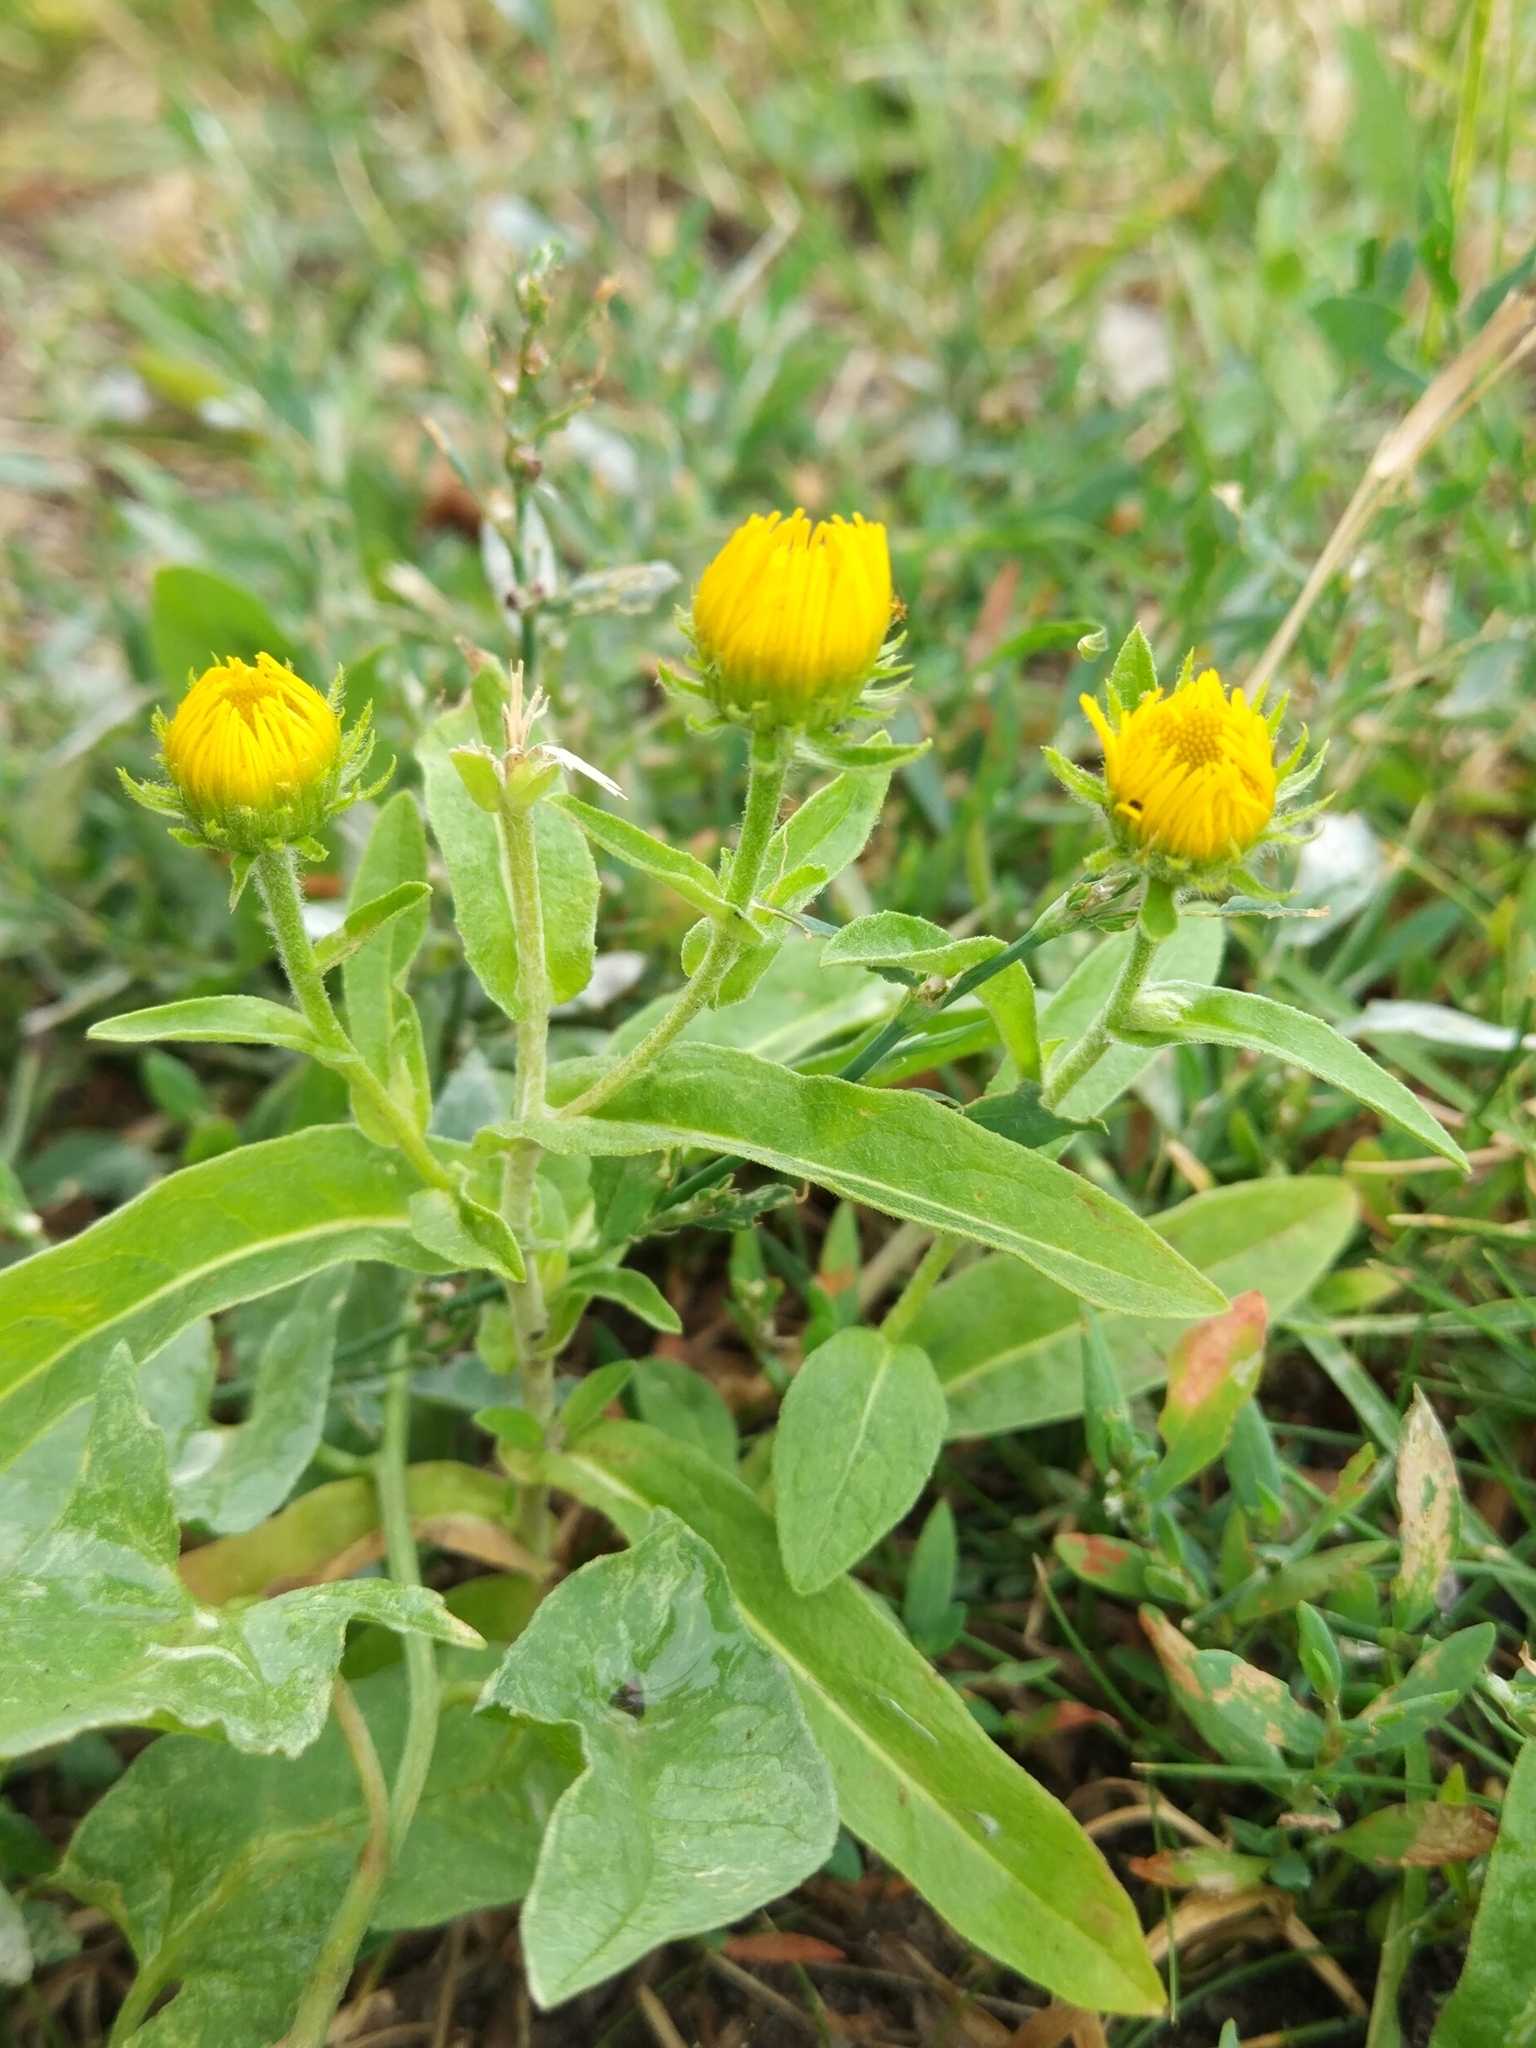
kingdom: Plantae
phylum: Tracheophyta
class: Magnoliopsida
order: Asterales
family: Asteraceae
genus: Pentanema
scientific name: Pentanema britannicum
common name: British elecampane
